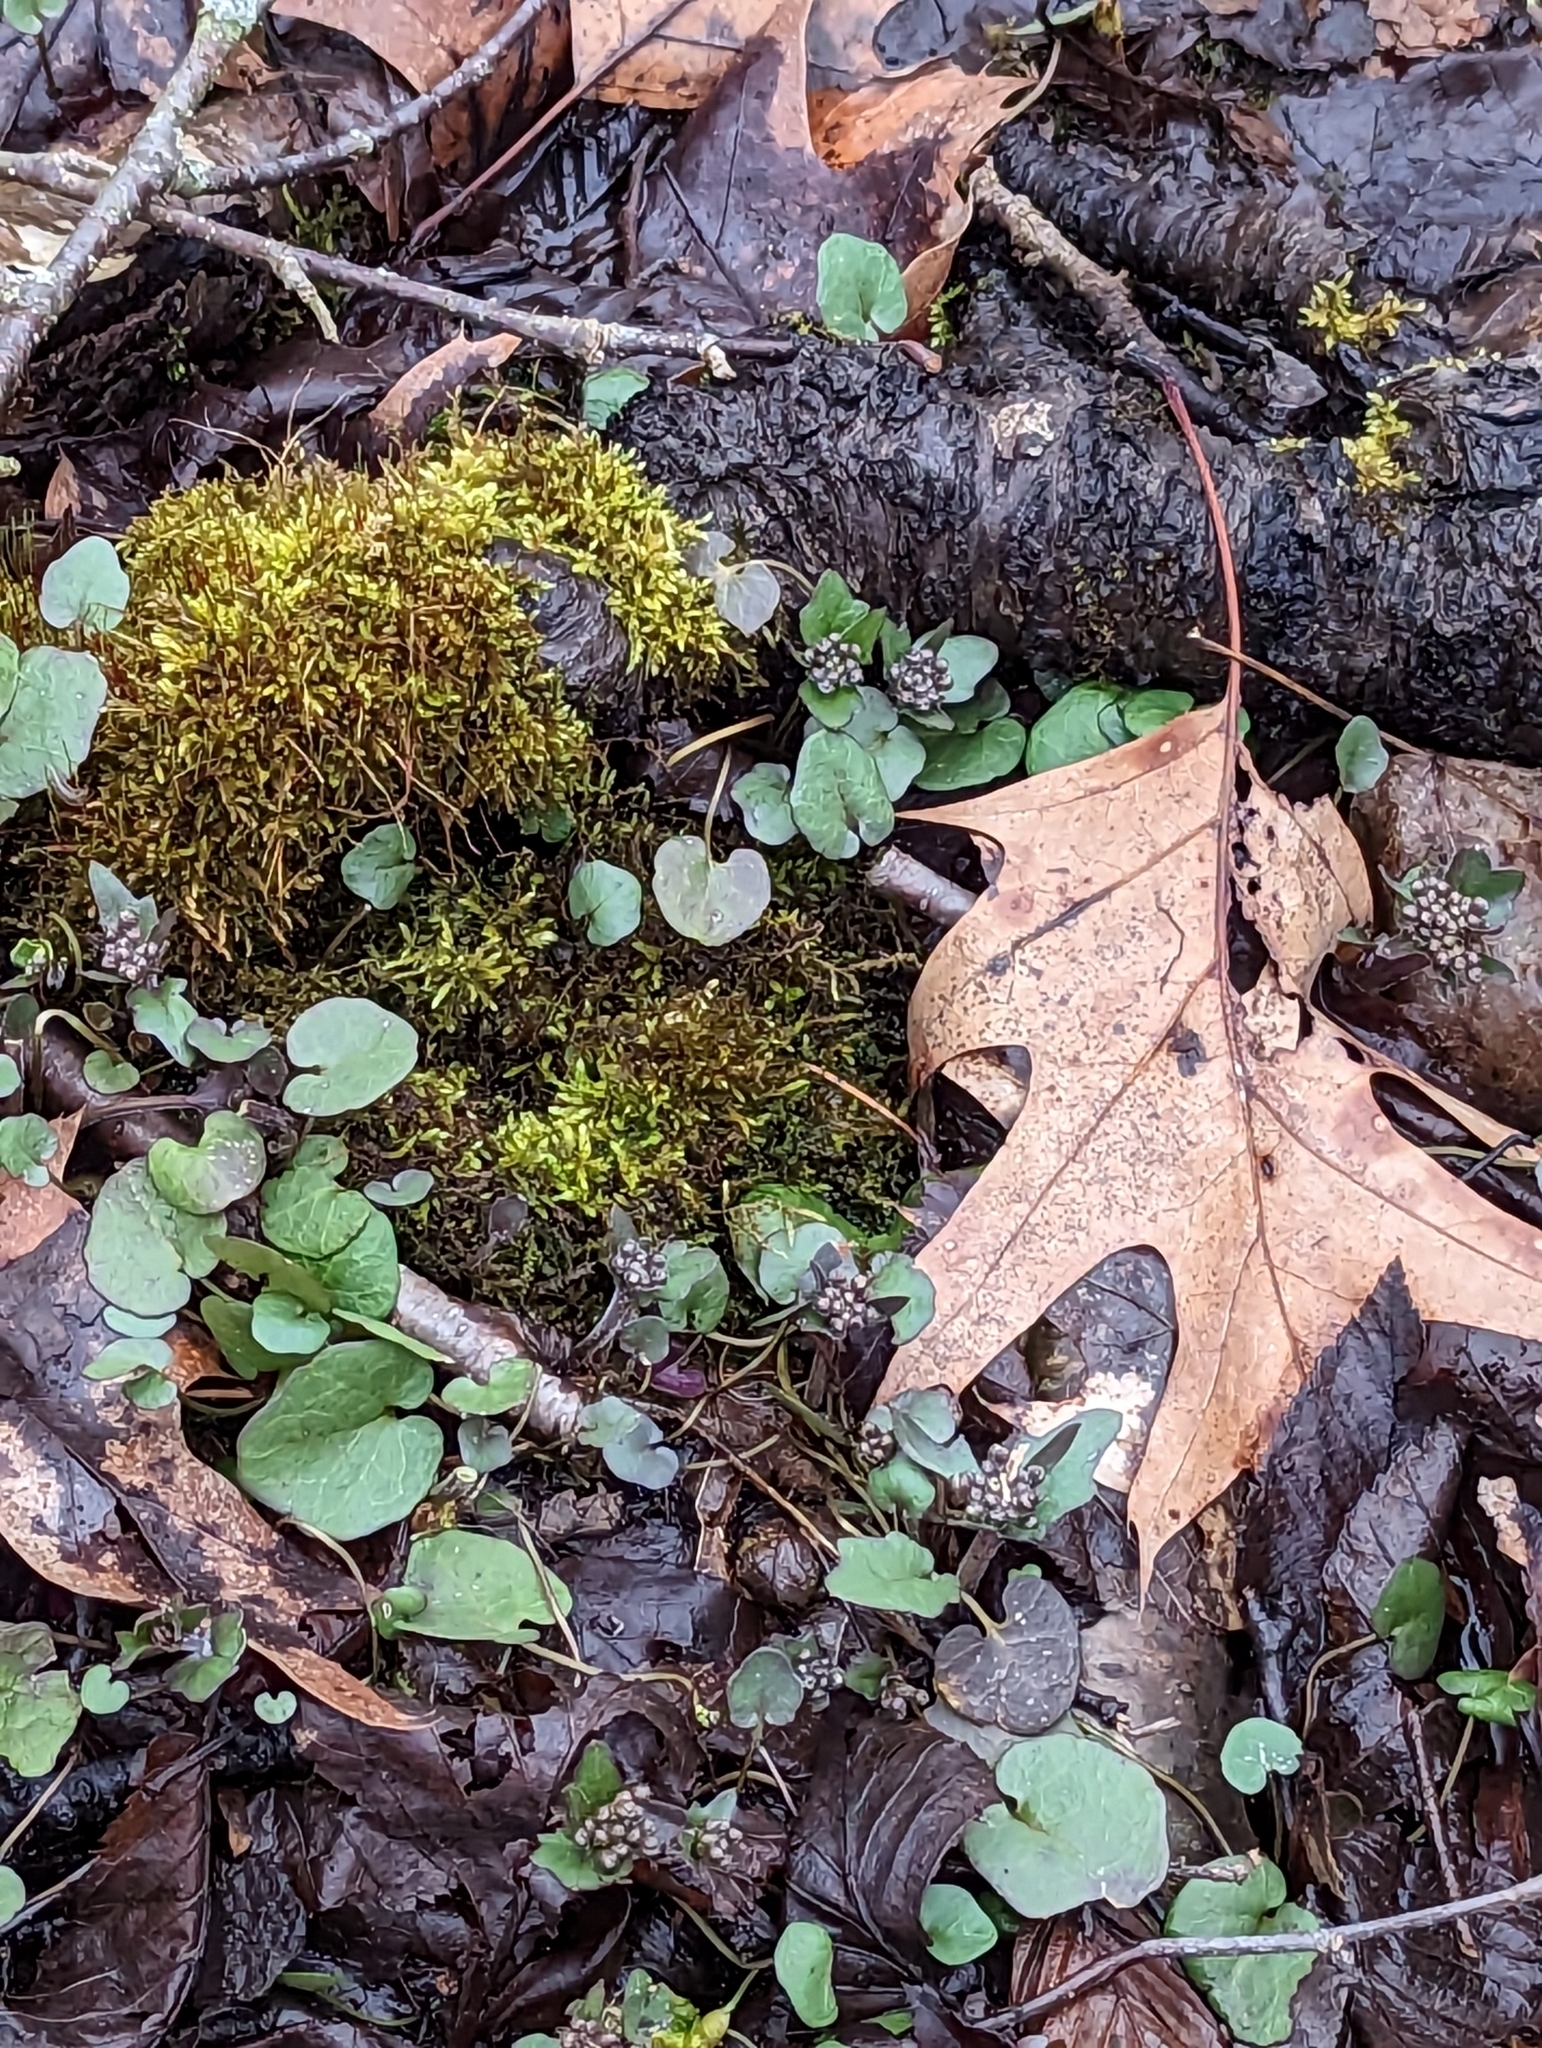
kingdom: Plantae
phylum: Tracheophyta
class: Magnoliopsida
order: Brassicales
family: Brassicaceae
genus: Cardamine
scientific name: Cardamine douglassii
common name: Purple cress
